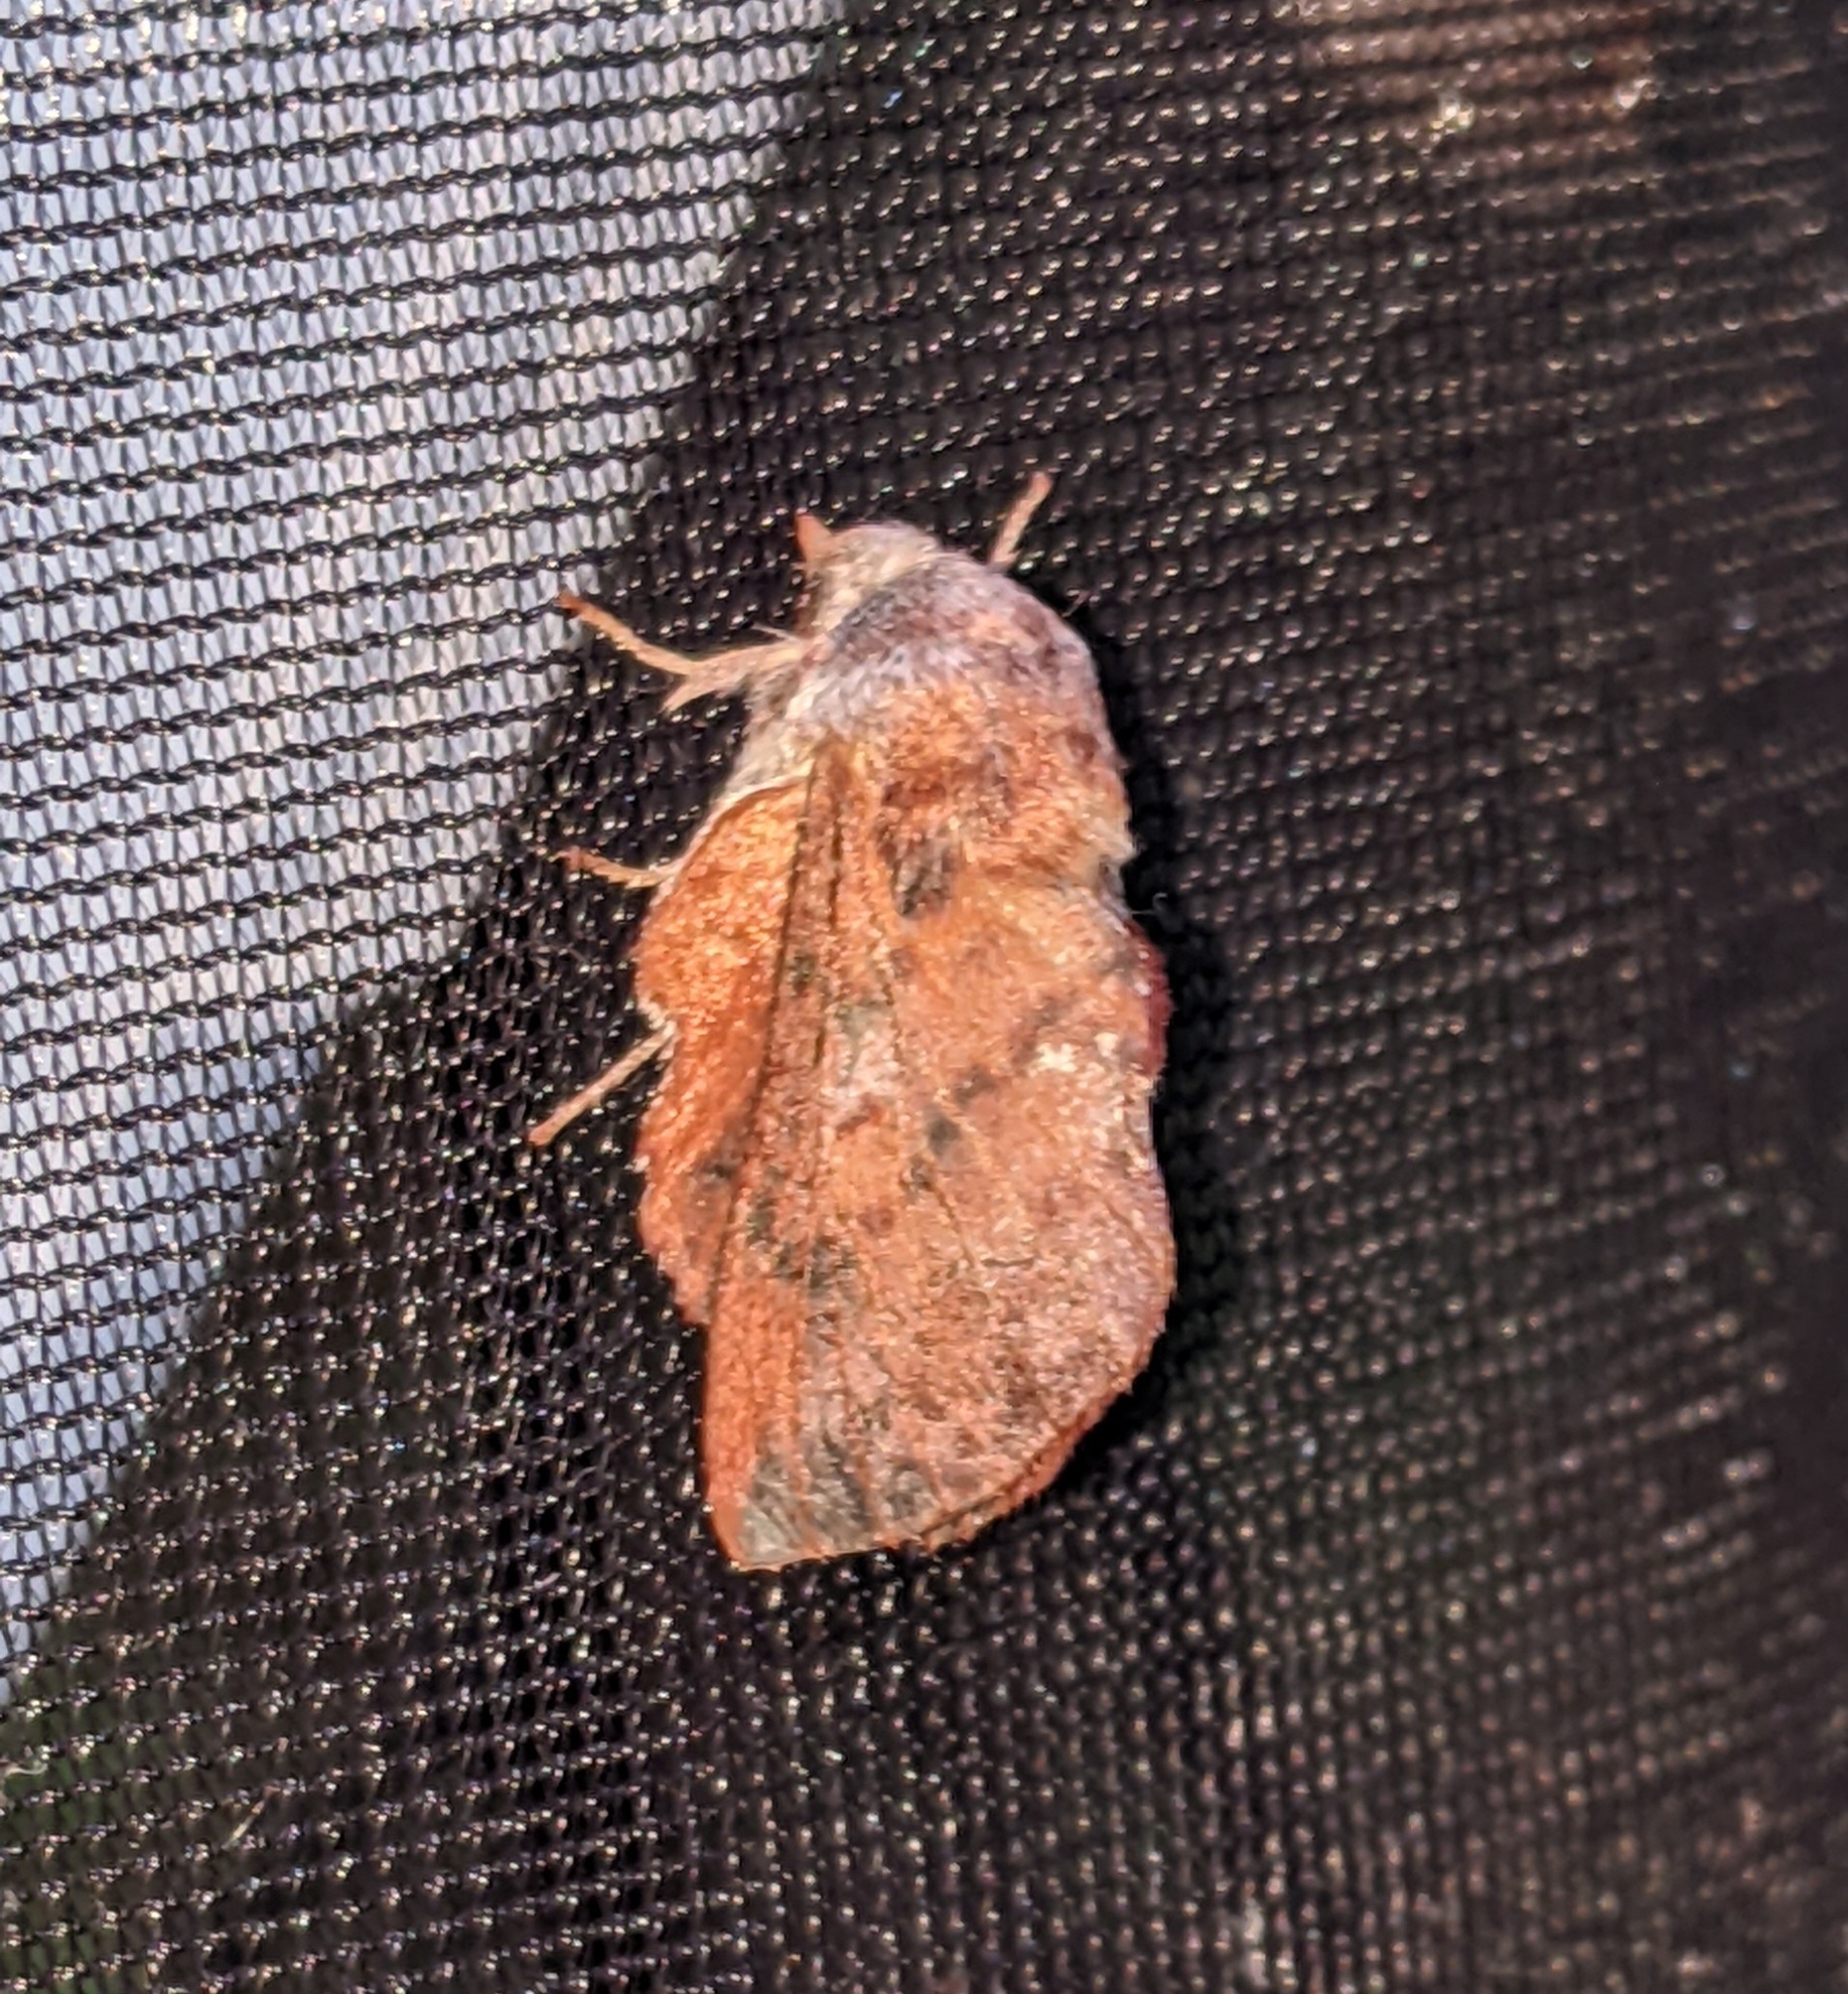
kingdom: Animalia
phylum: Arthropoda
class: Insecta
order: Lepidoptera
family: Lasiocampidae
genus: Phyllodesma
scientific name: Phyllodesma americana
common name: American lappet moth
